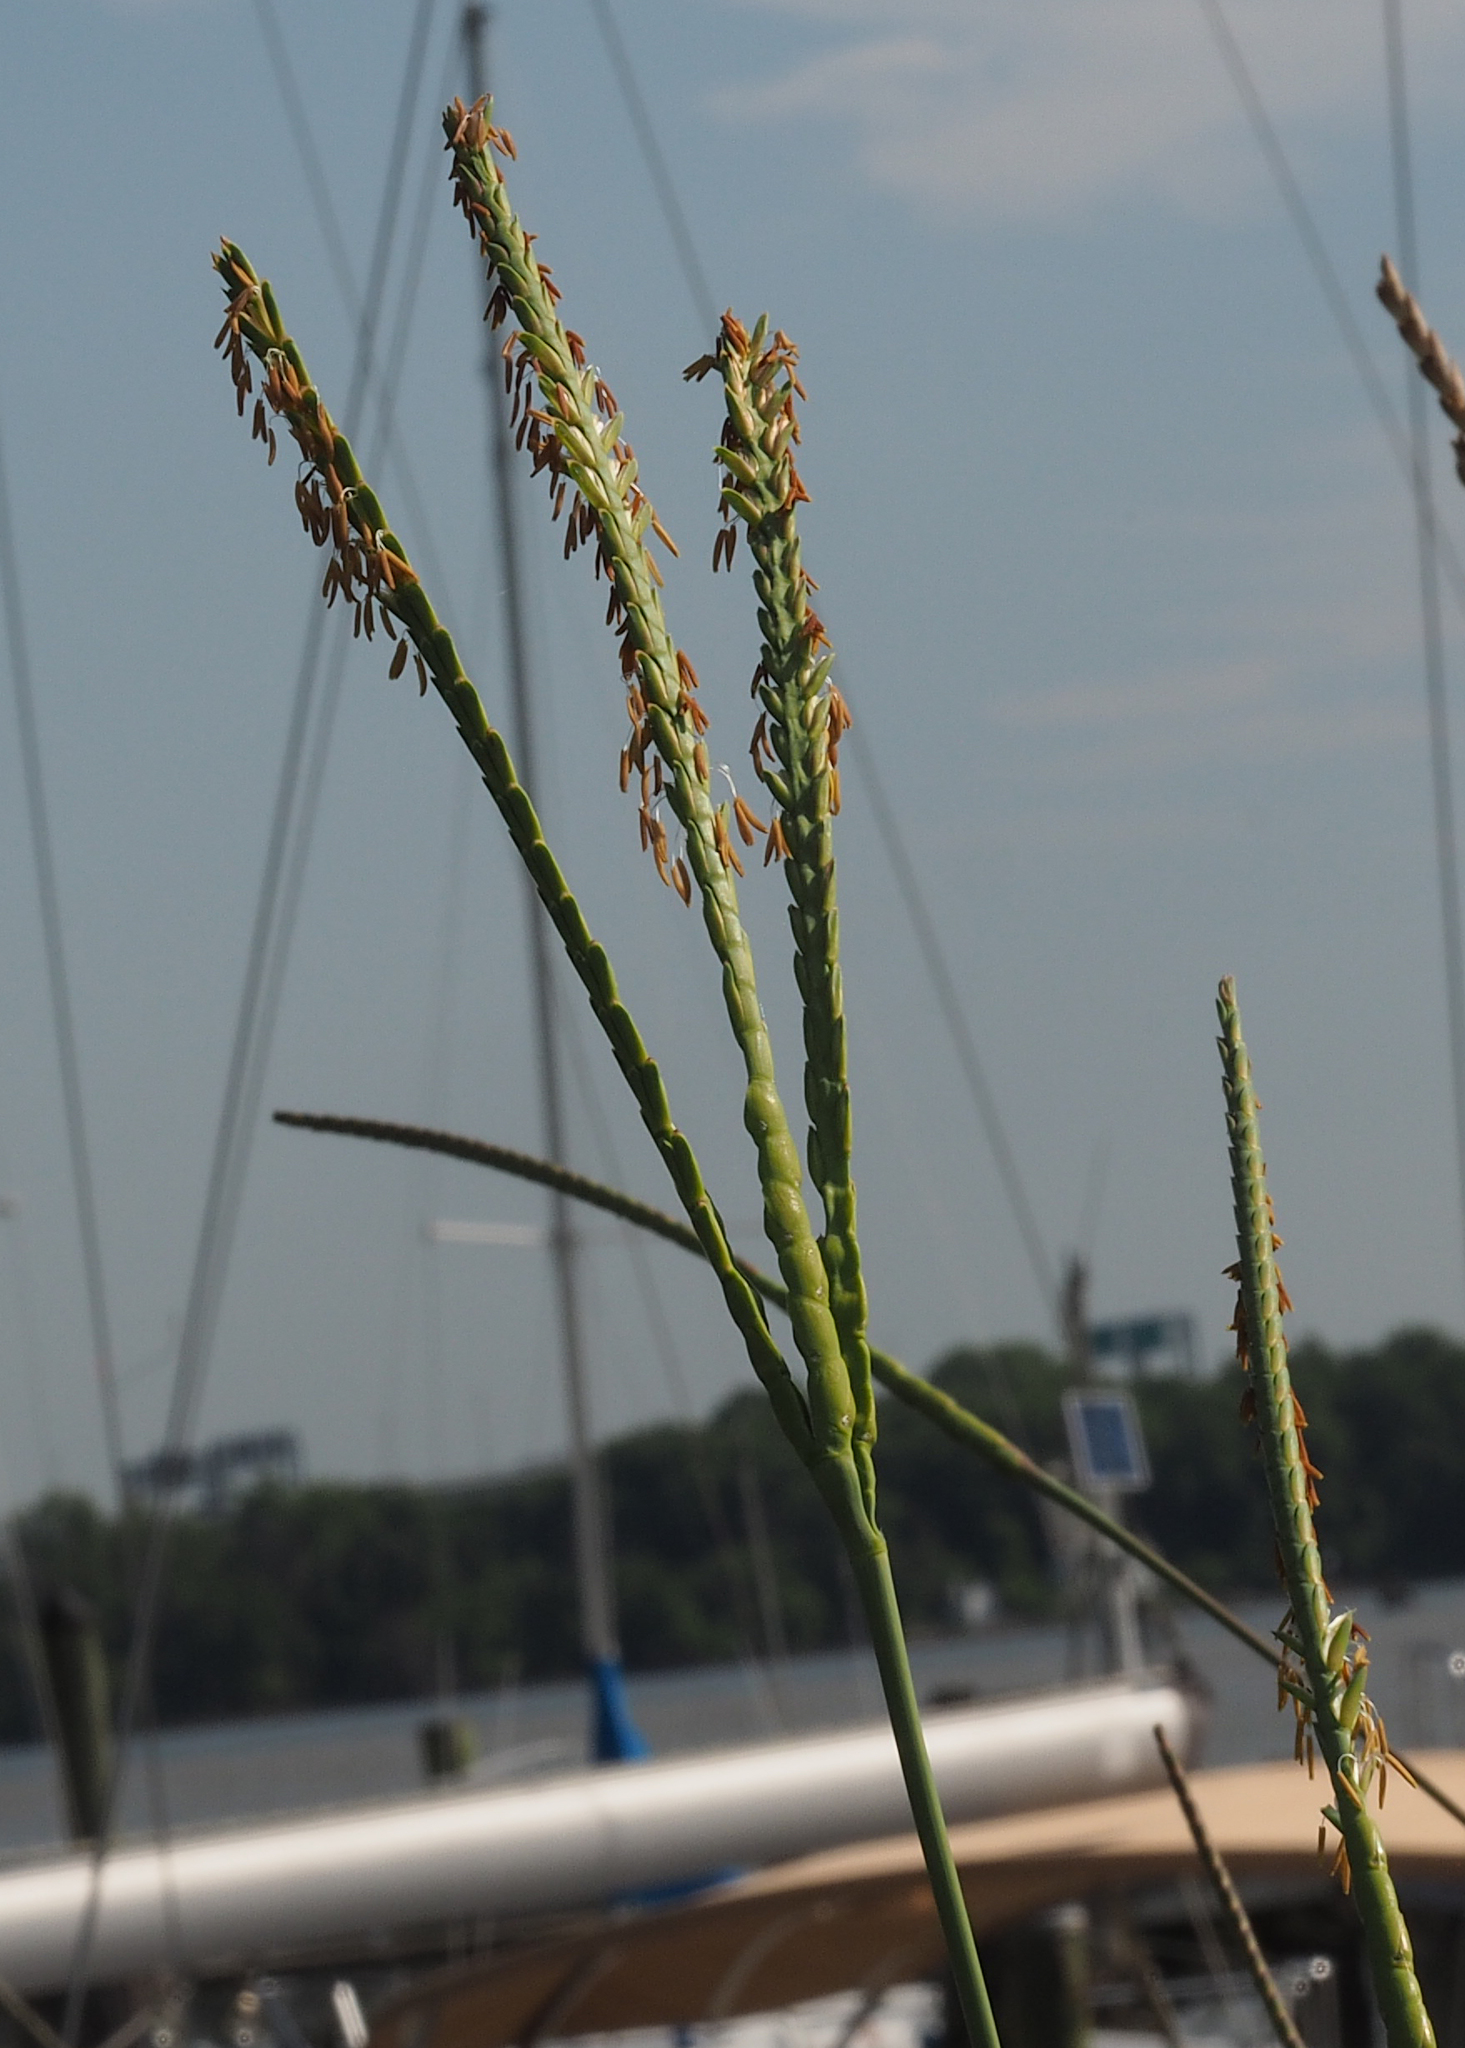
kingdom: Plantae
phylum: Tracheophyta
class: Liliopsida
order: Poales
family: Poaceae
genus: Tripsacum
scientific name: Tripsacum dactyloides
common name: Buffalo-grass
